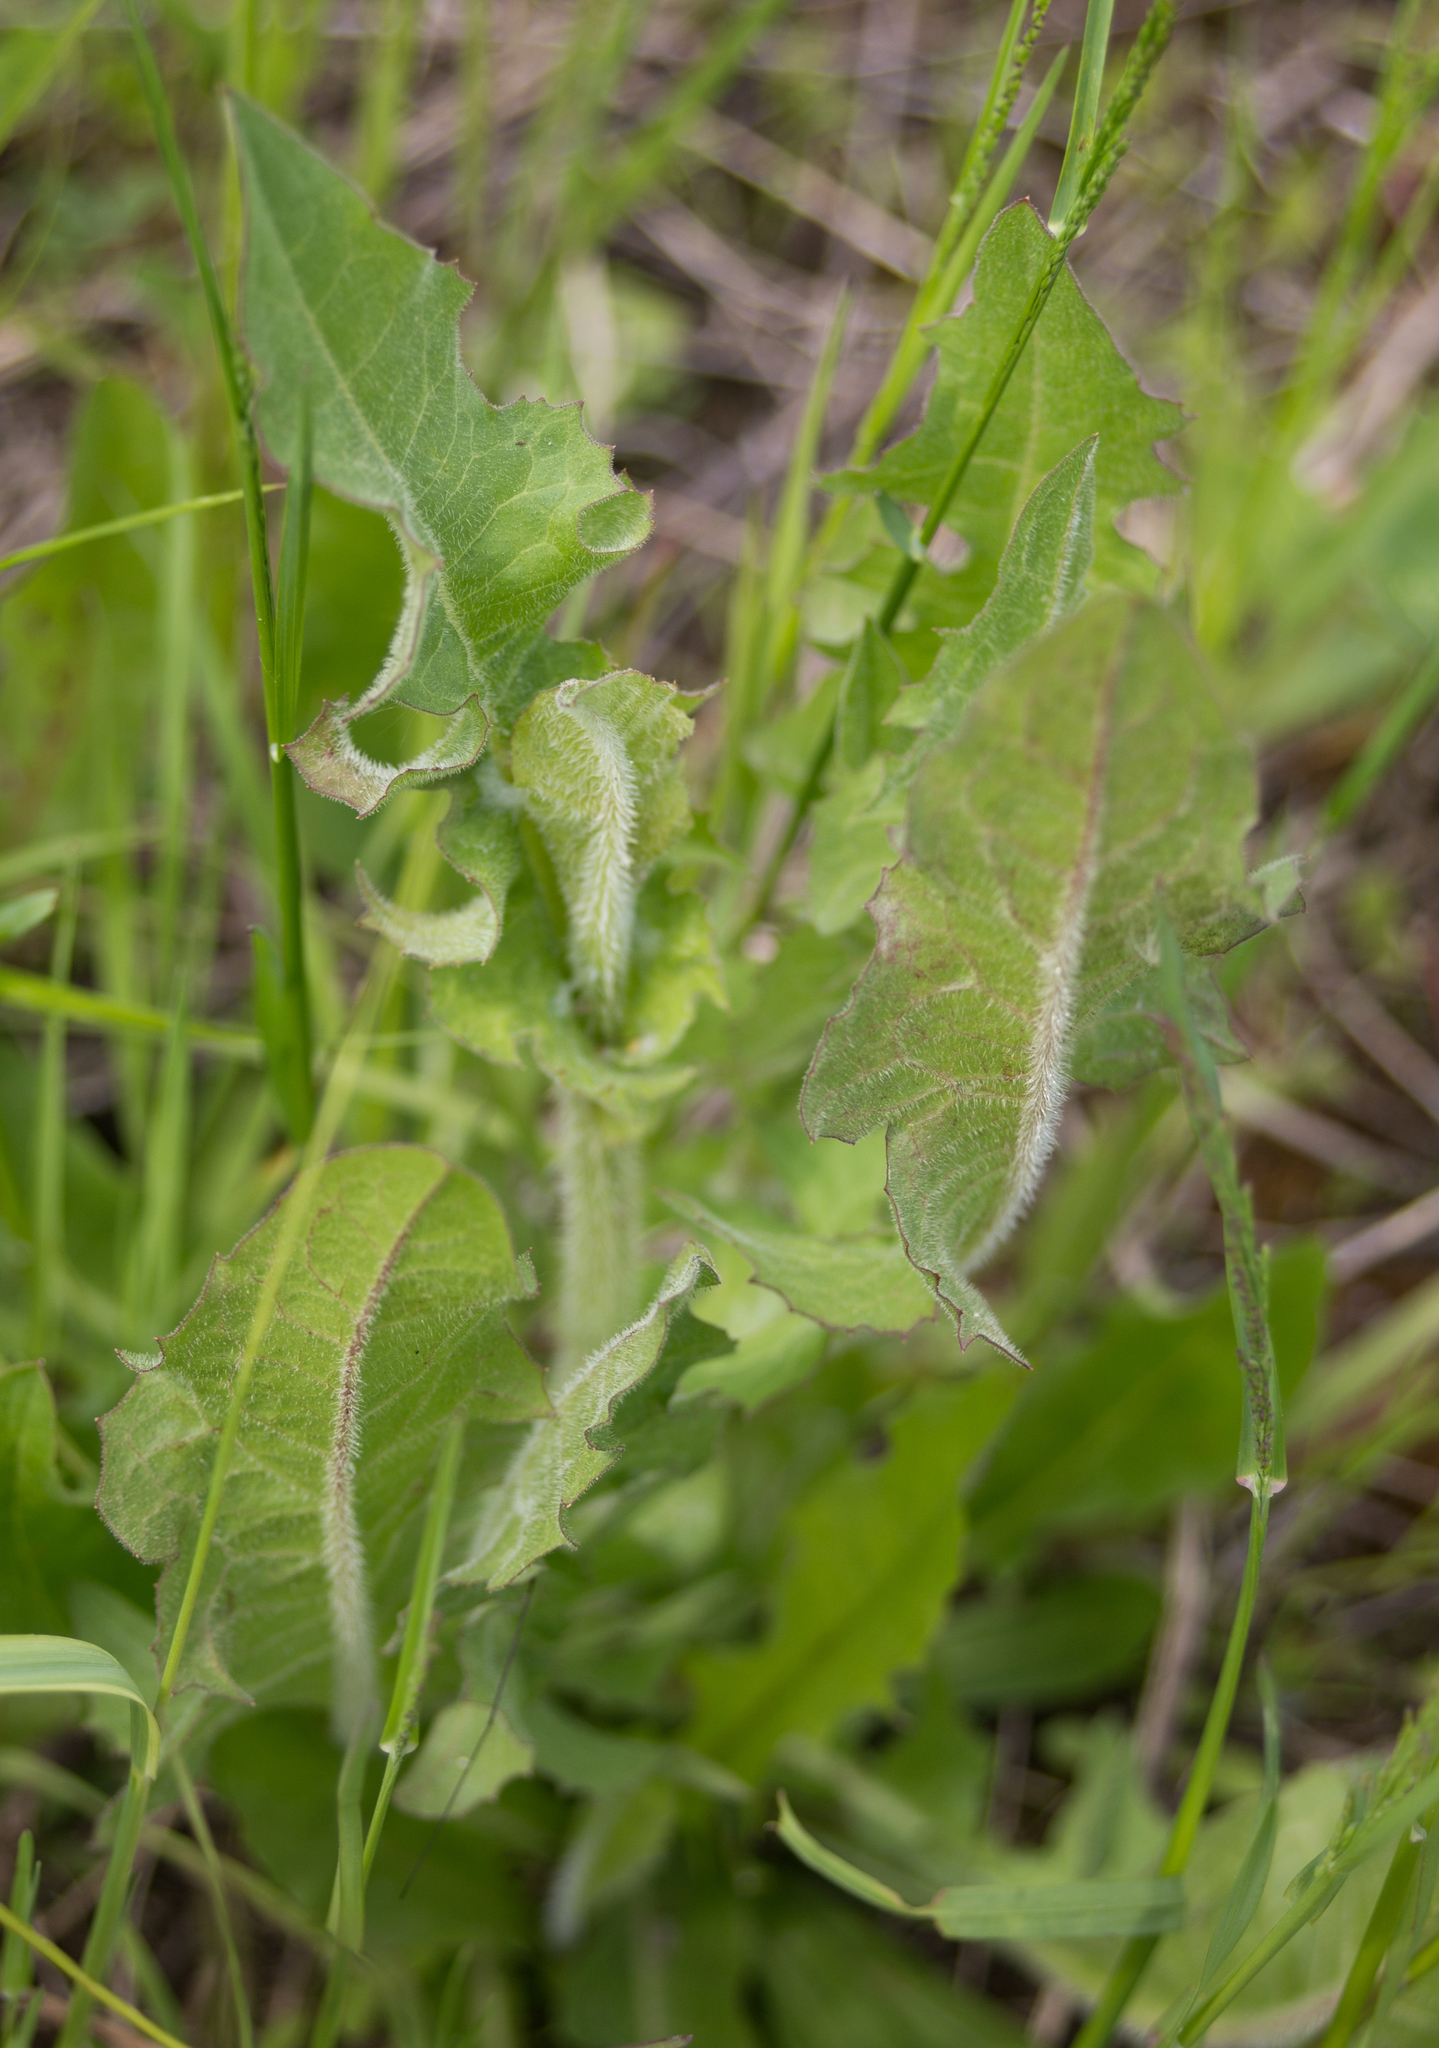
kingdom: Plantae
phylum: Tracheophyta
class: Magnoliopsida
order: Asterales
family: Asteraceae
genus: Cichorium
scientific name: Cichorium intybus
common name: Chicory
